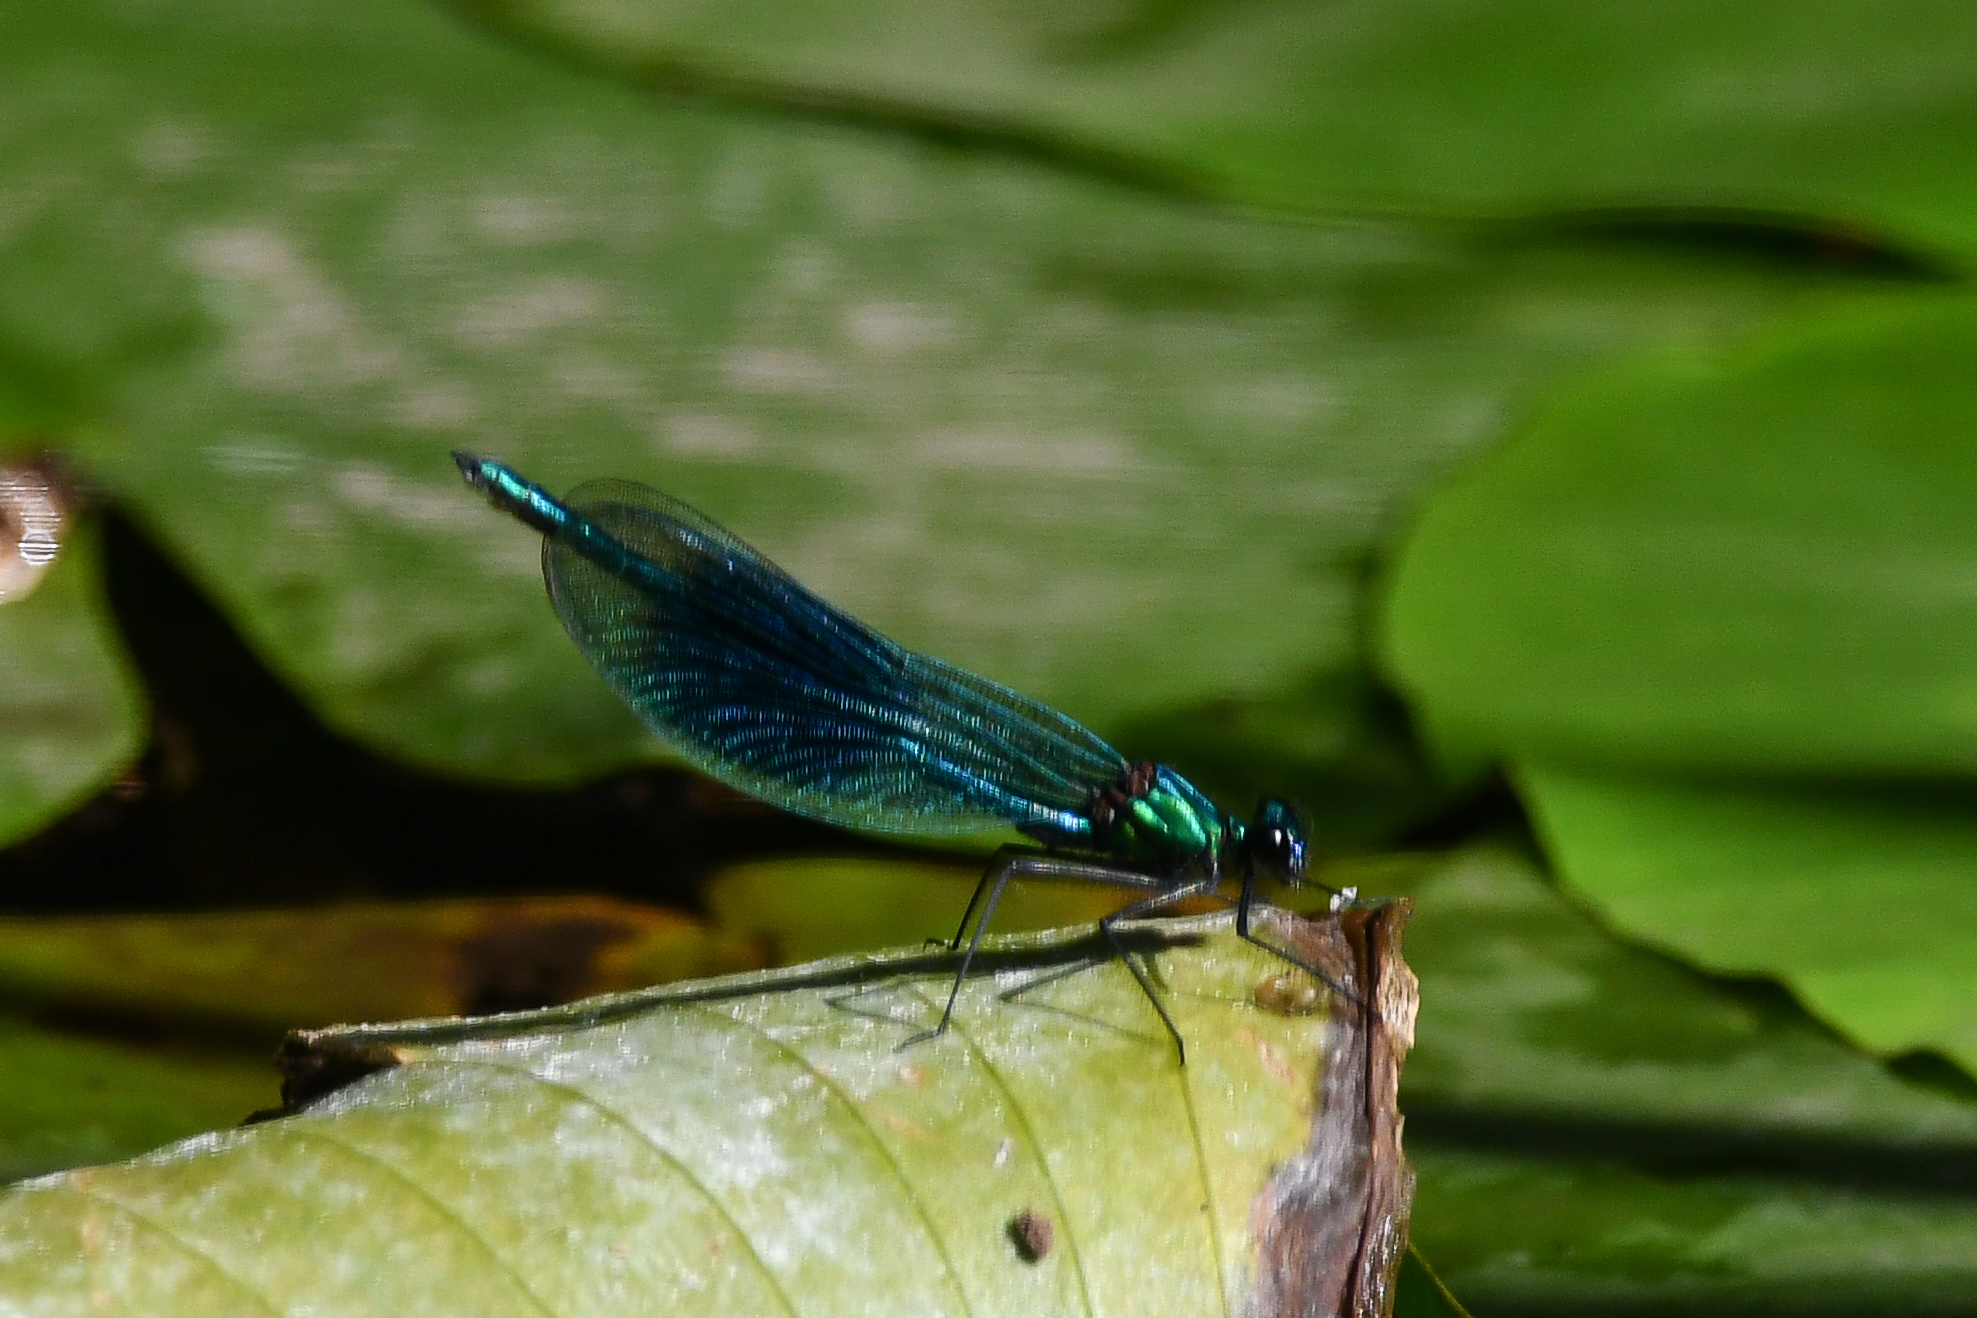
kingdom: Animalia
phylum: Arthropoda
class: Insecta
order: Odonata
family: Calopterygidae
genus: Calopteryx
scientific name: Calopteryx splendens
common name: Banded demoiselle
